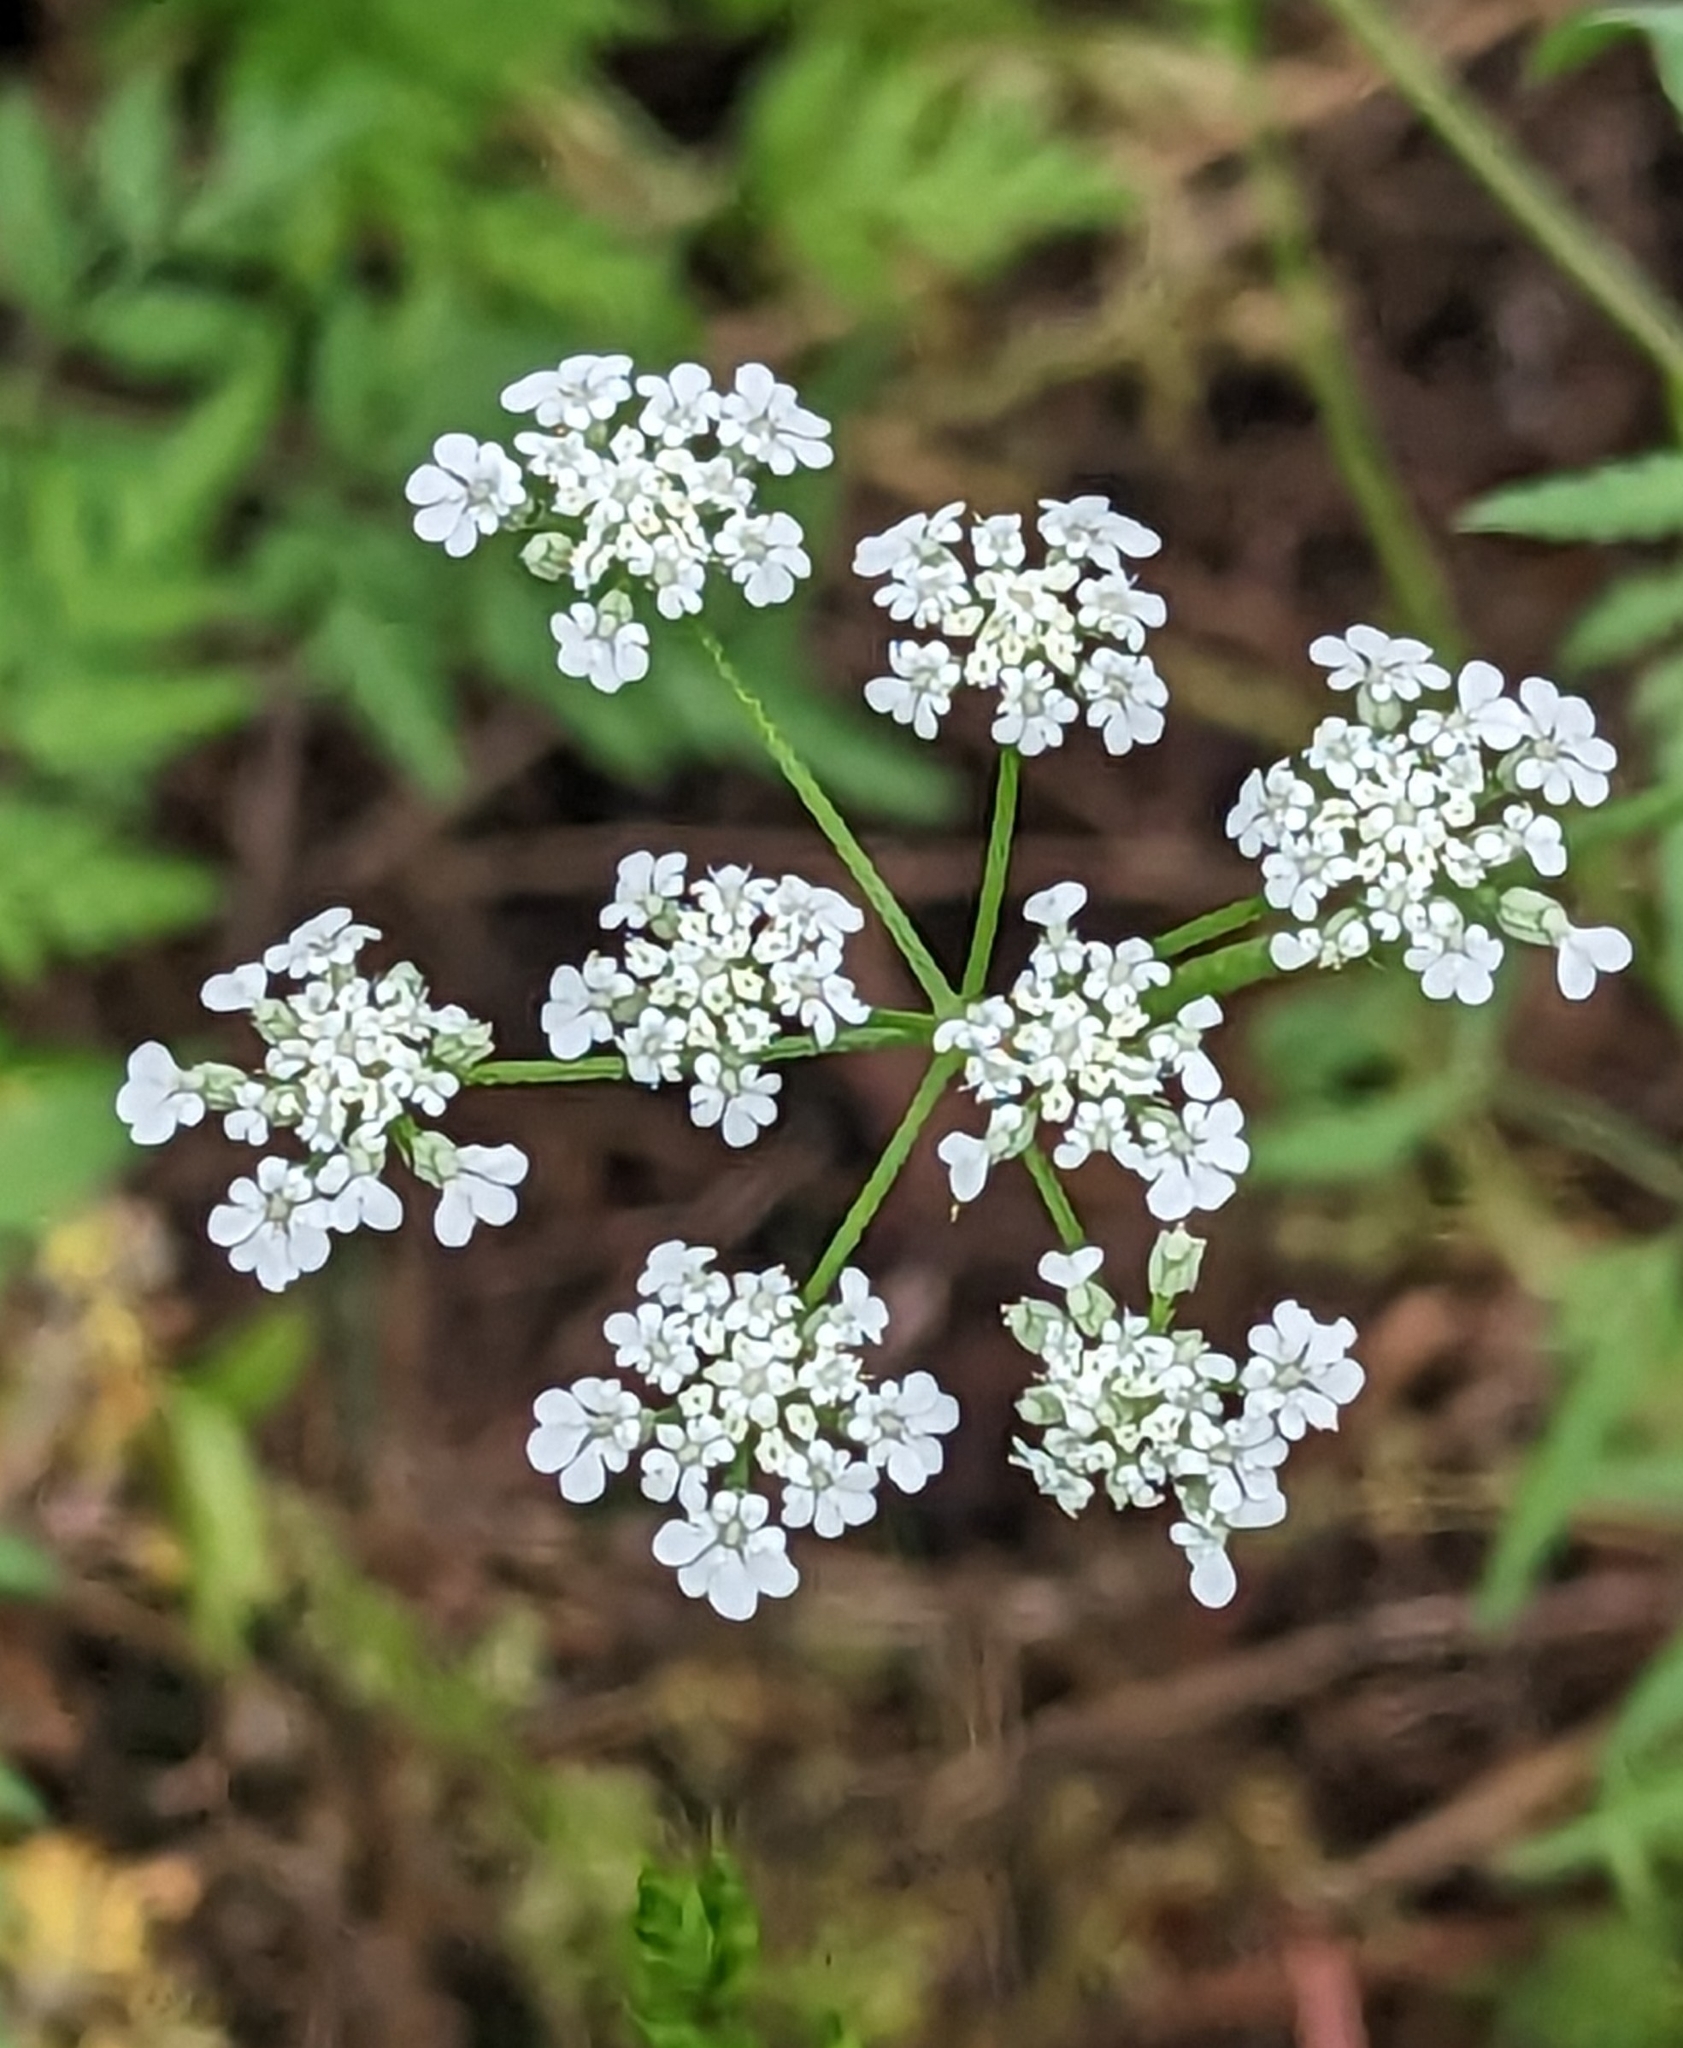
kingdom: Plantae
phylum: Tracheophyta
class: Magnoliopsida
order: Apiales
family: Apiaceae
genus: Torilis
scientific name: Torilis arvensis
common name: Spreading hedge-parsley
